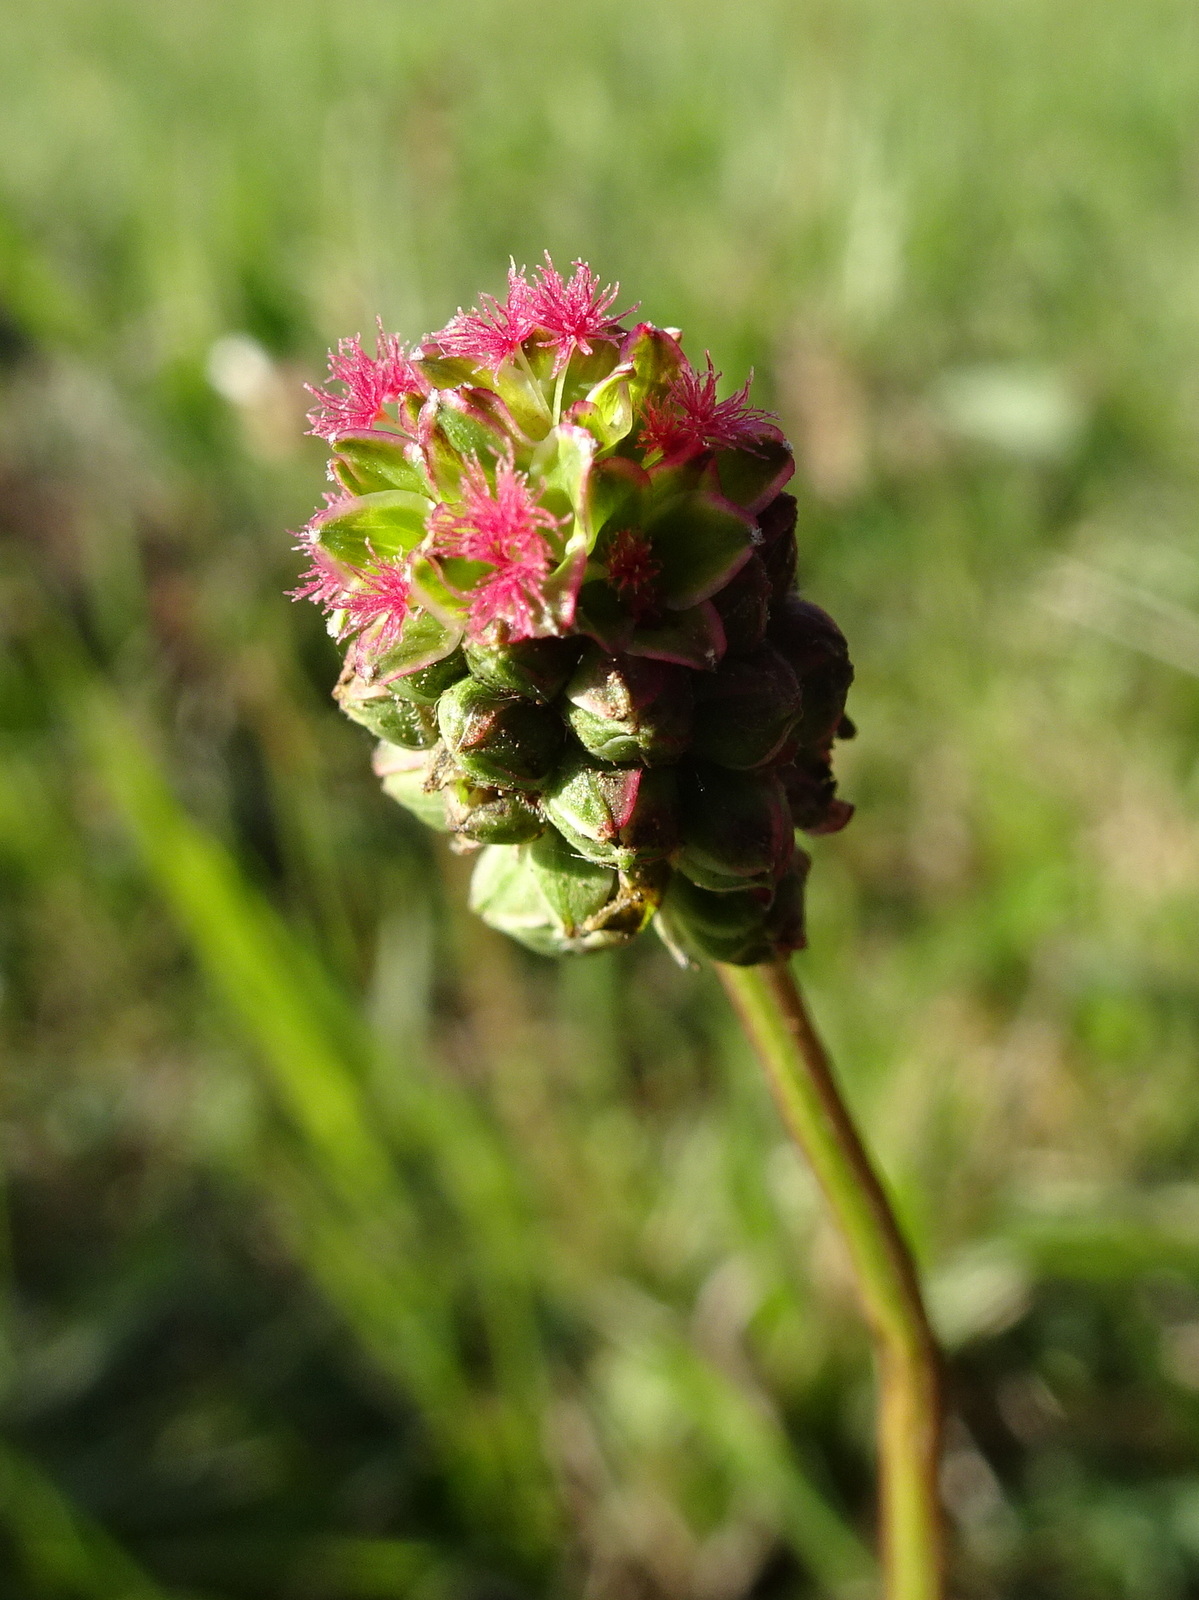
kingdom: Plantae
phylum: Tracheophyta
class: Magnoliopsida
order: Rosales
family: Rosaceae
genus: Poterium
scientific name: Poterium sanguisorba
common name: Salad burnet
